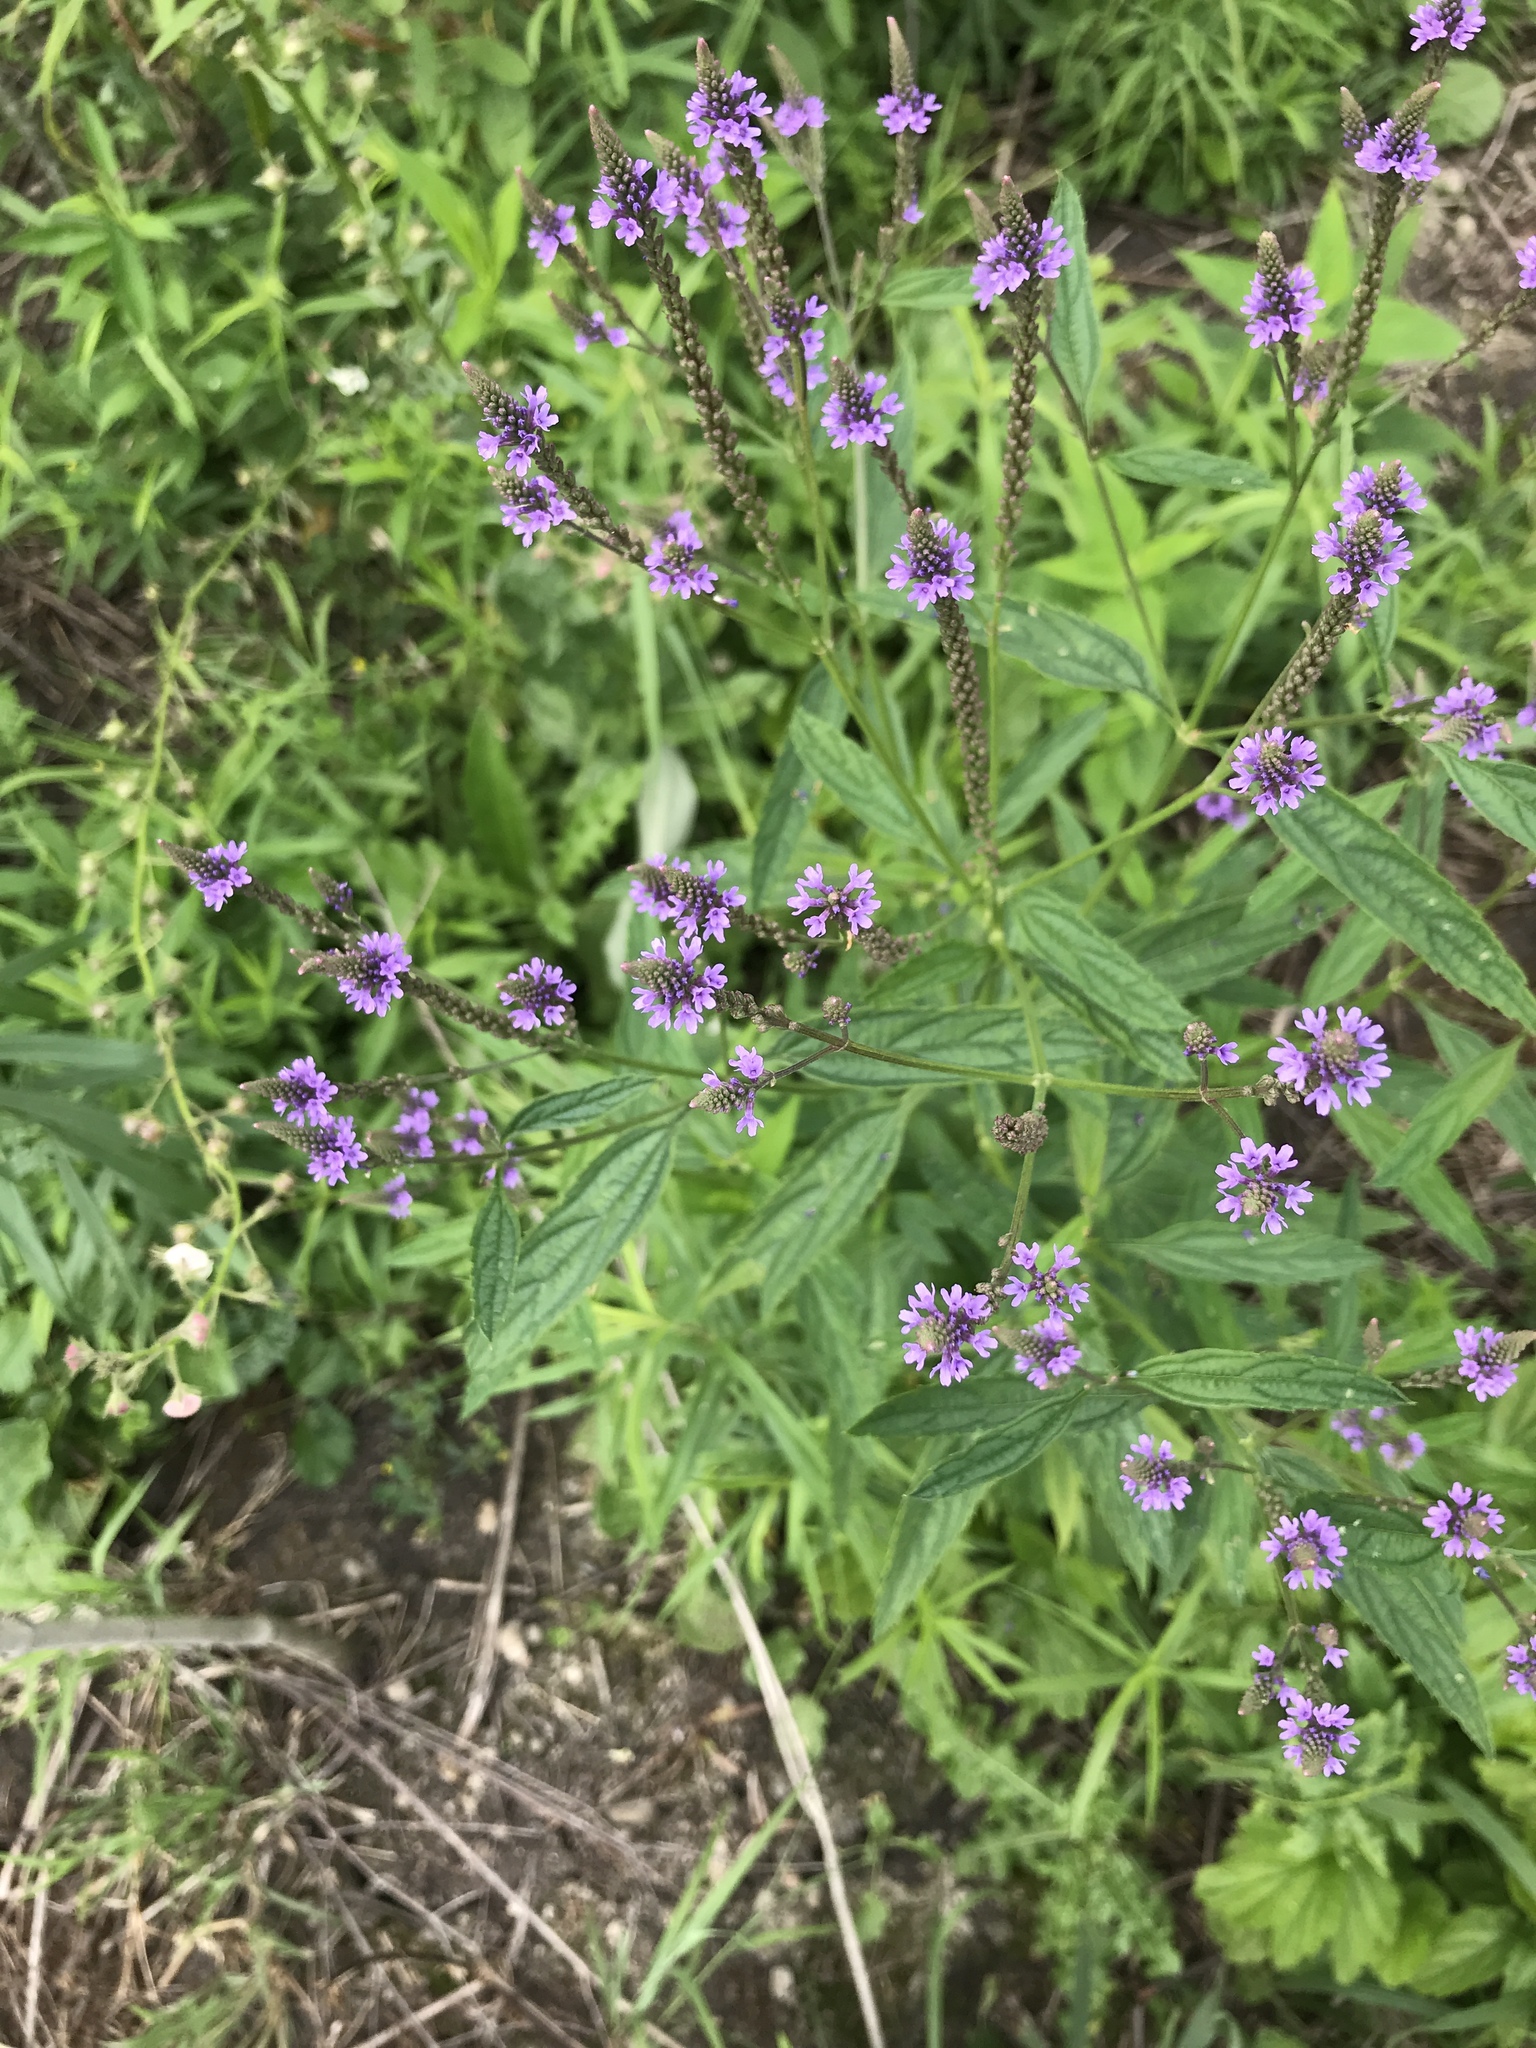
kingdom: Plantae
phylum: Tracheophyta
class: Magnoliopsida
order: Lamiales
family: Verbenaceae
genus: Verbena
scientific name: Verbena hastata
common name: American blue vervain
